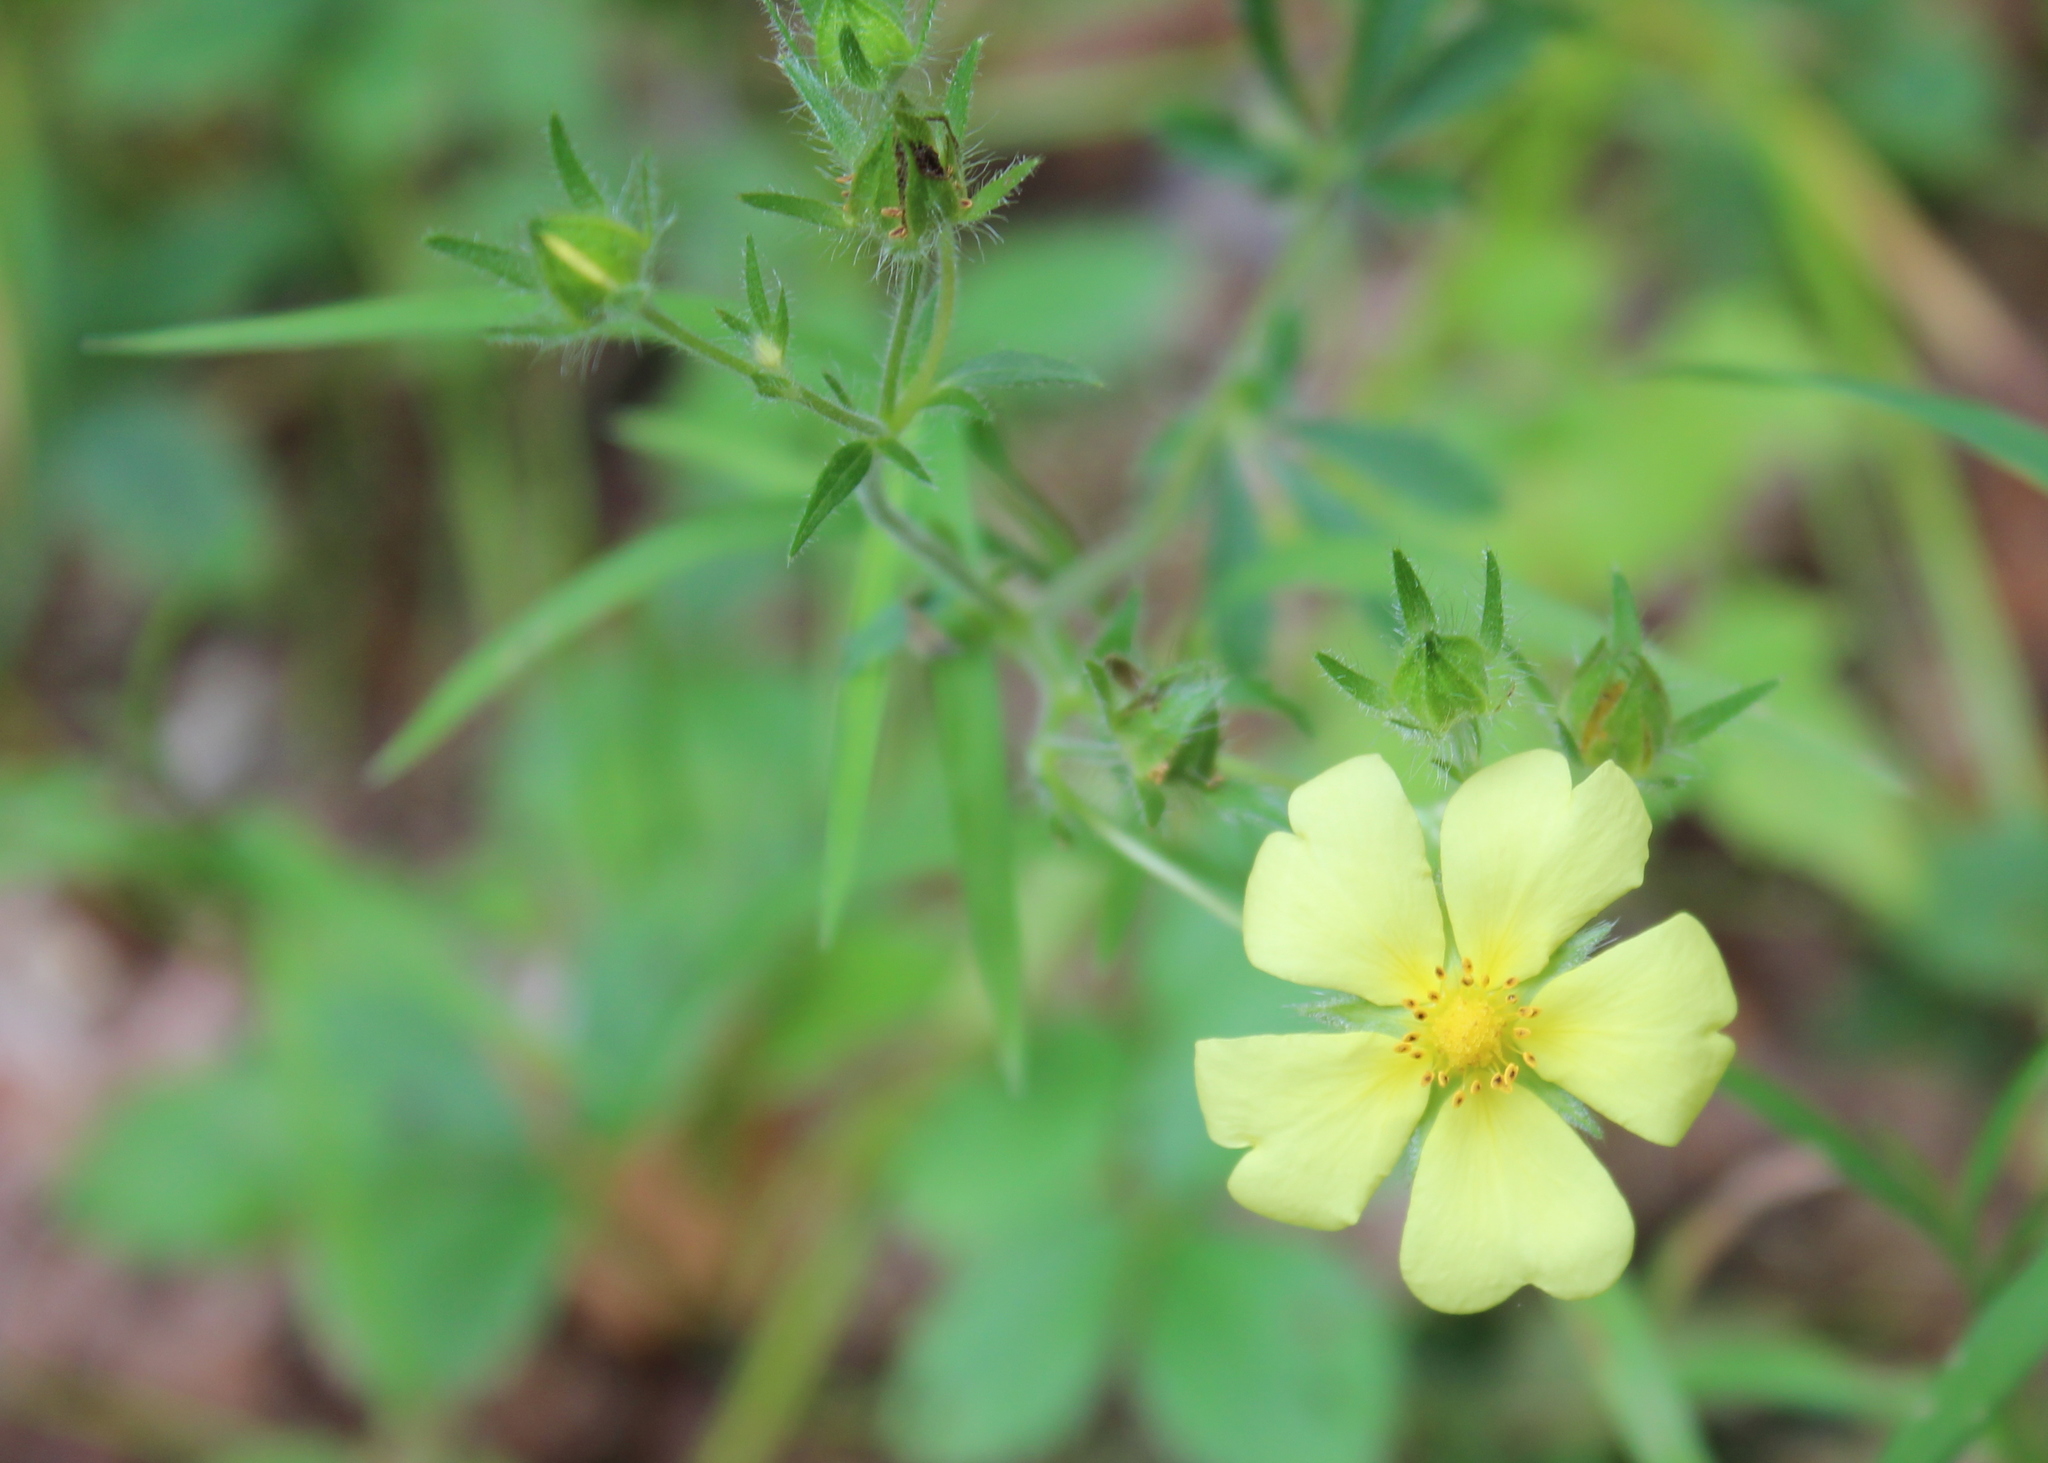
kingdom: Plantae
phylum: Tracheophyta
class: Magnoliopsida
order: Rosales
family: Rosaceae
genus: Potentilla
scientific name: Potentilla recta
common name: Sulphur cinquefoil
